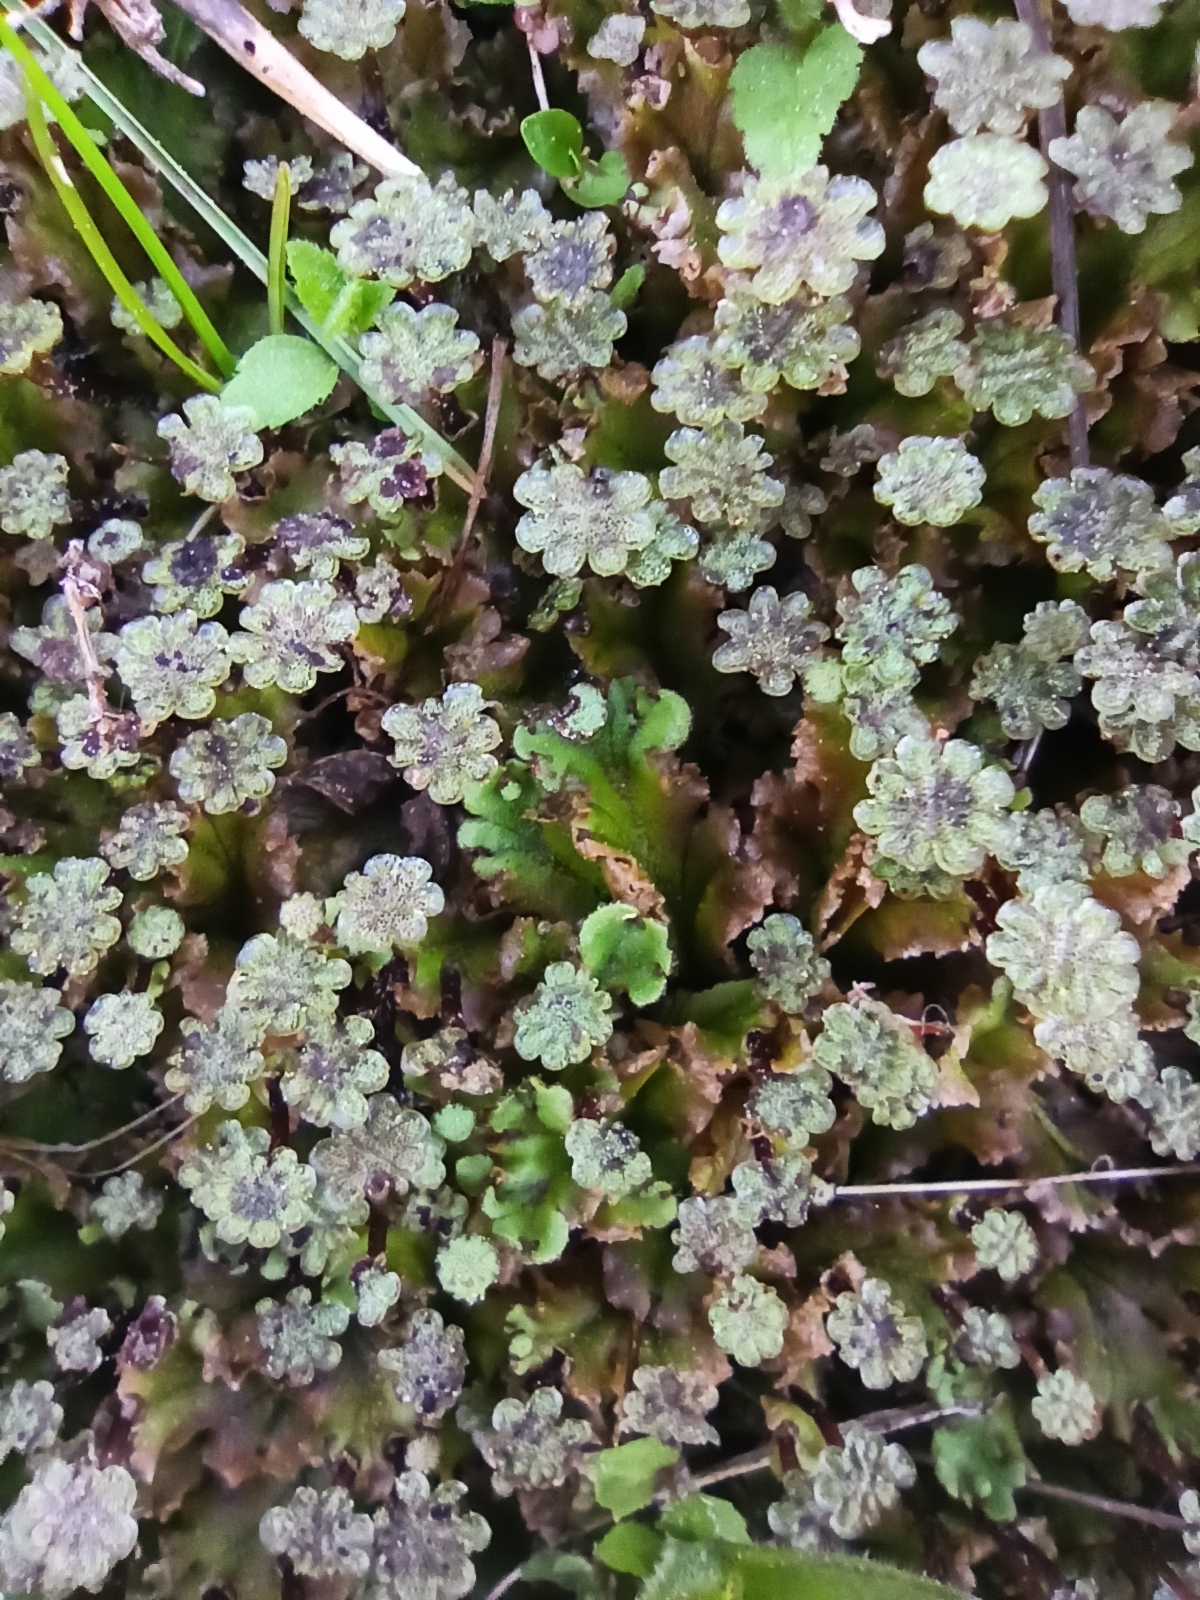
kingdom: Plantae
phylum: Marchantiophyta
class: Marchantiopsida
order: Marchantiales
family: Marchantiaceae
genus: Marchantia
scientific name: Marchantia polymorpha
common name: Common liverwort
